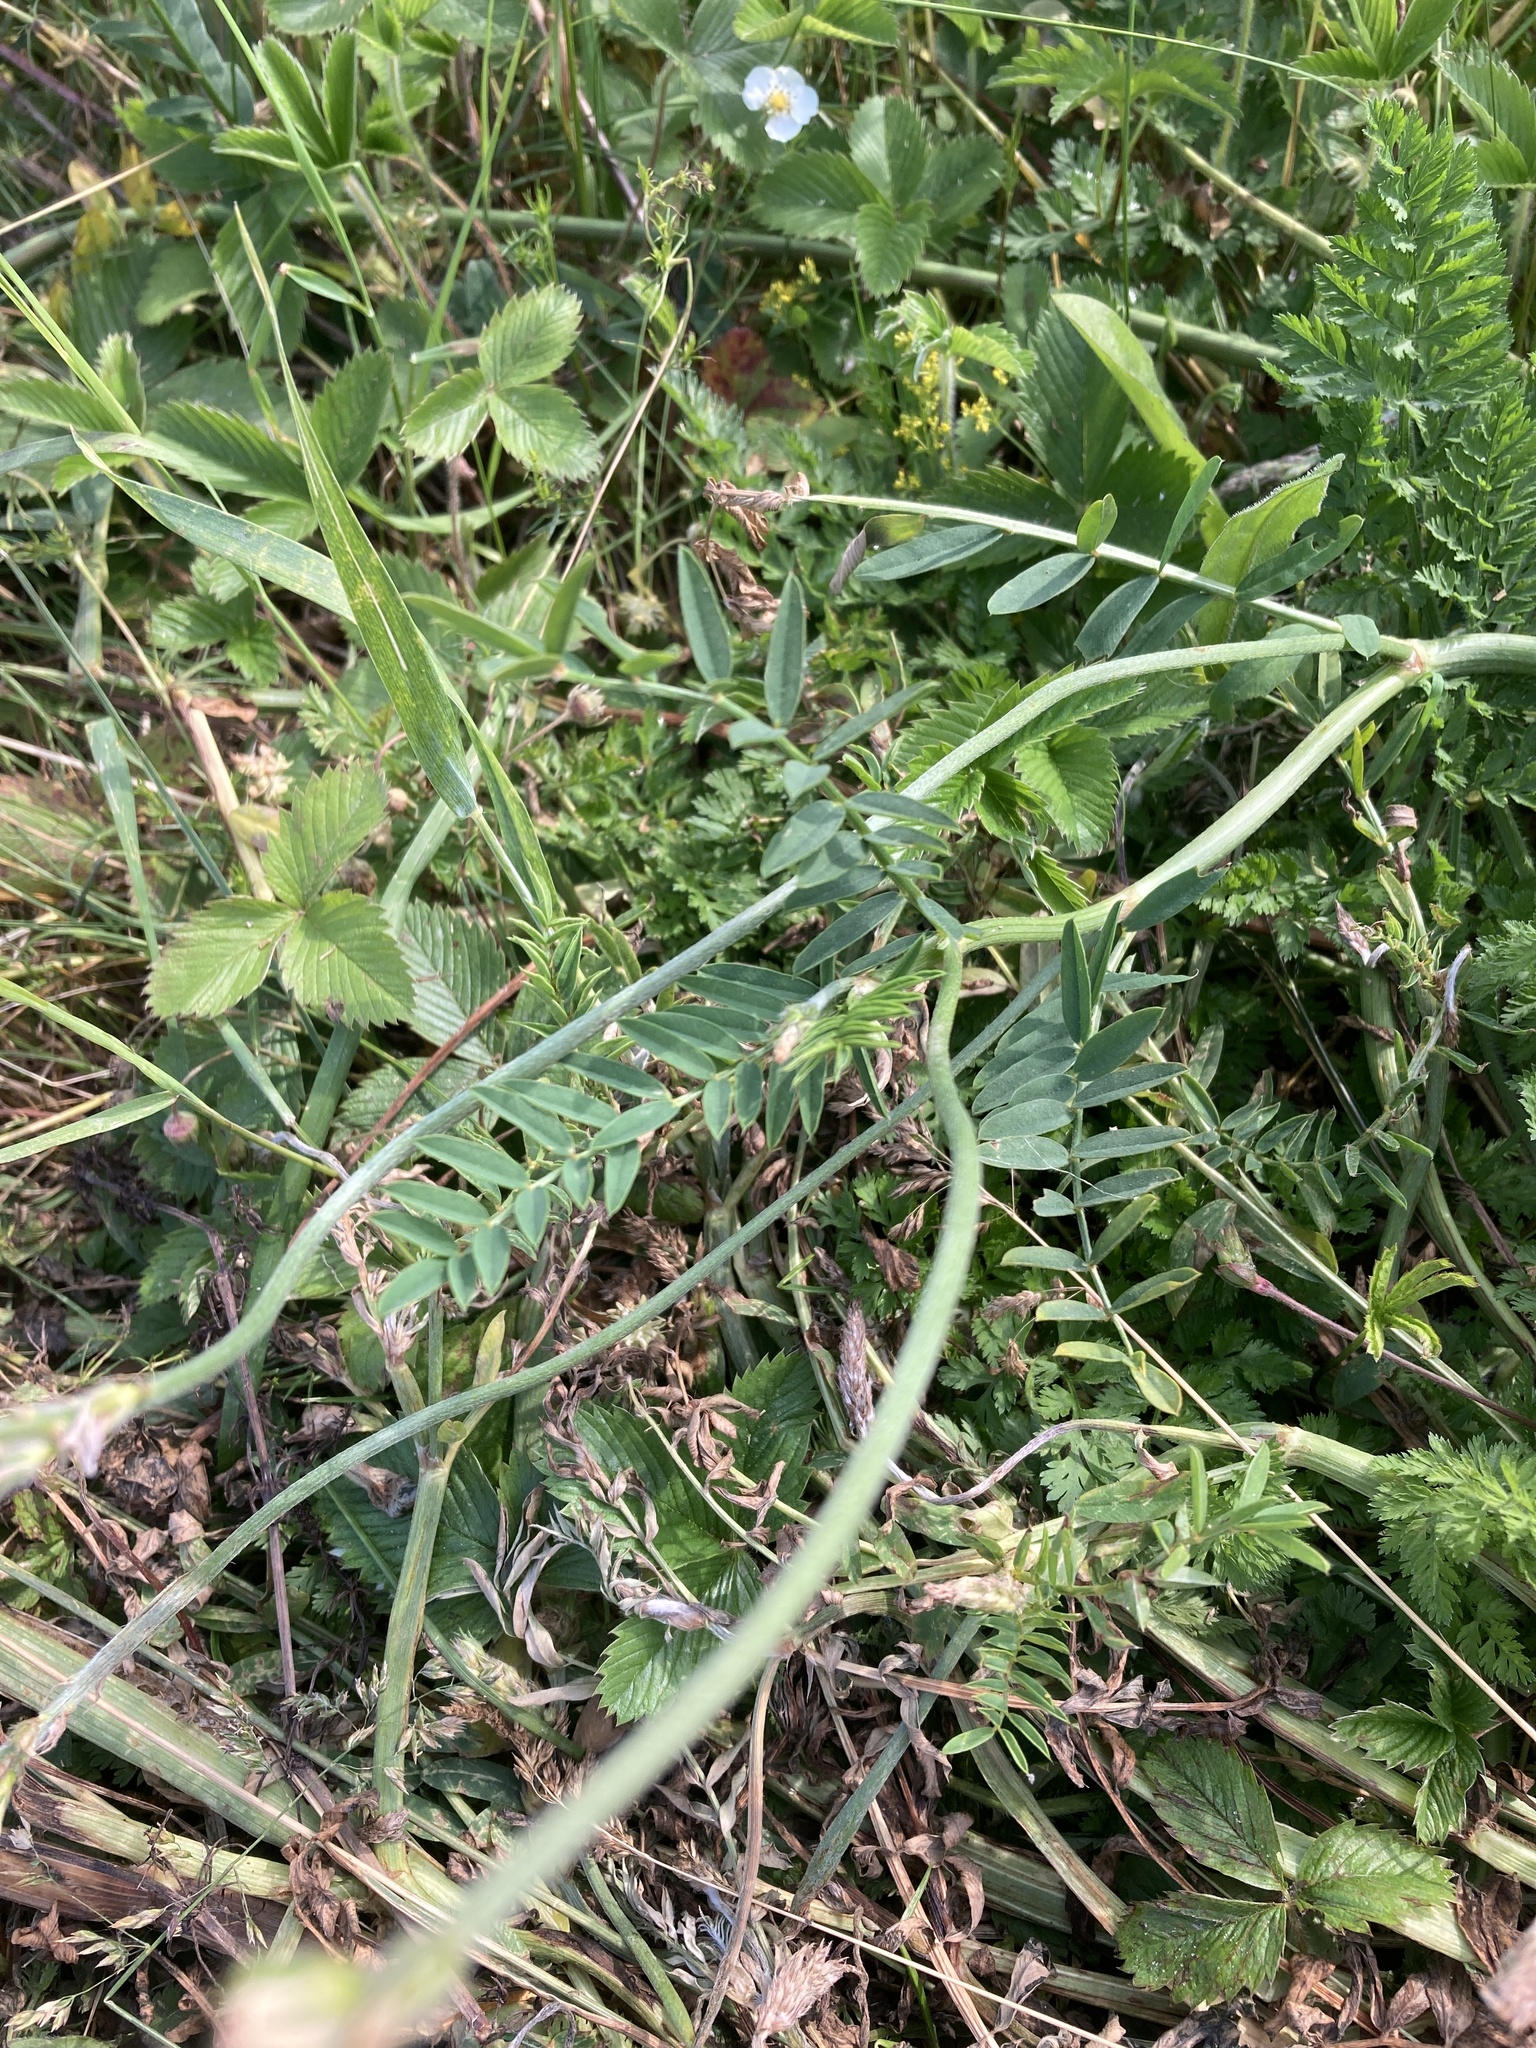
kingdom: Plantae
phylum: Tracheophyta
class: Magnoliopsida
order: Fabales
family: Fabaceae
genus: Onobrychis
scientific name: Onobrychis viciifolia
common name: Sainfoin
